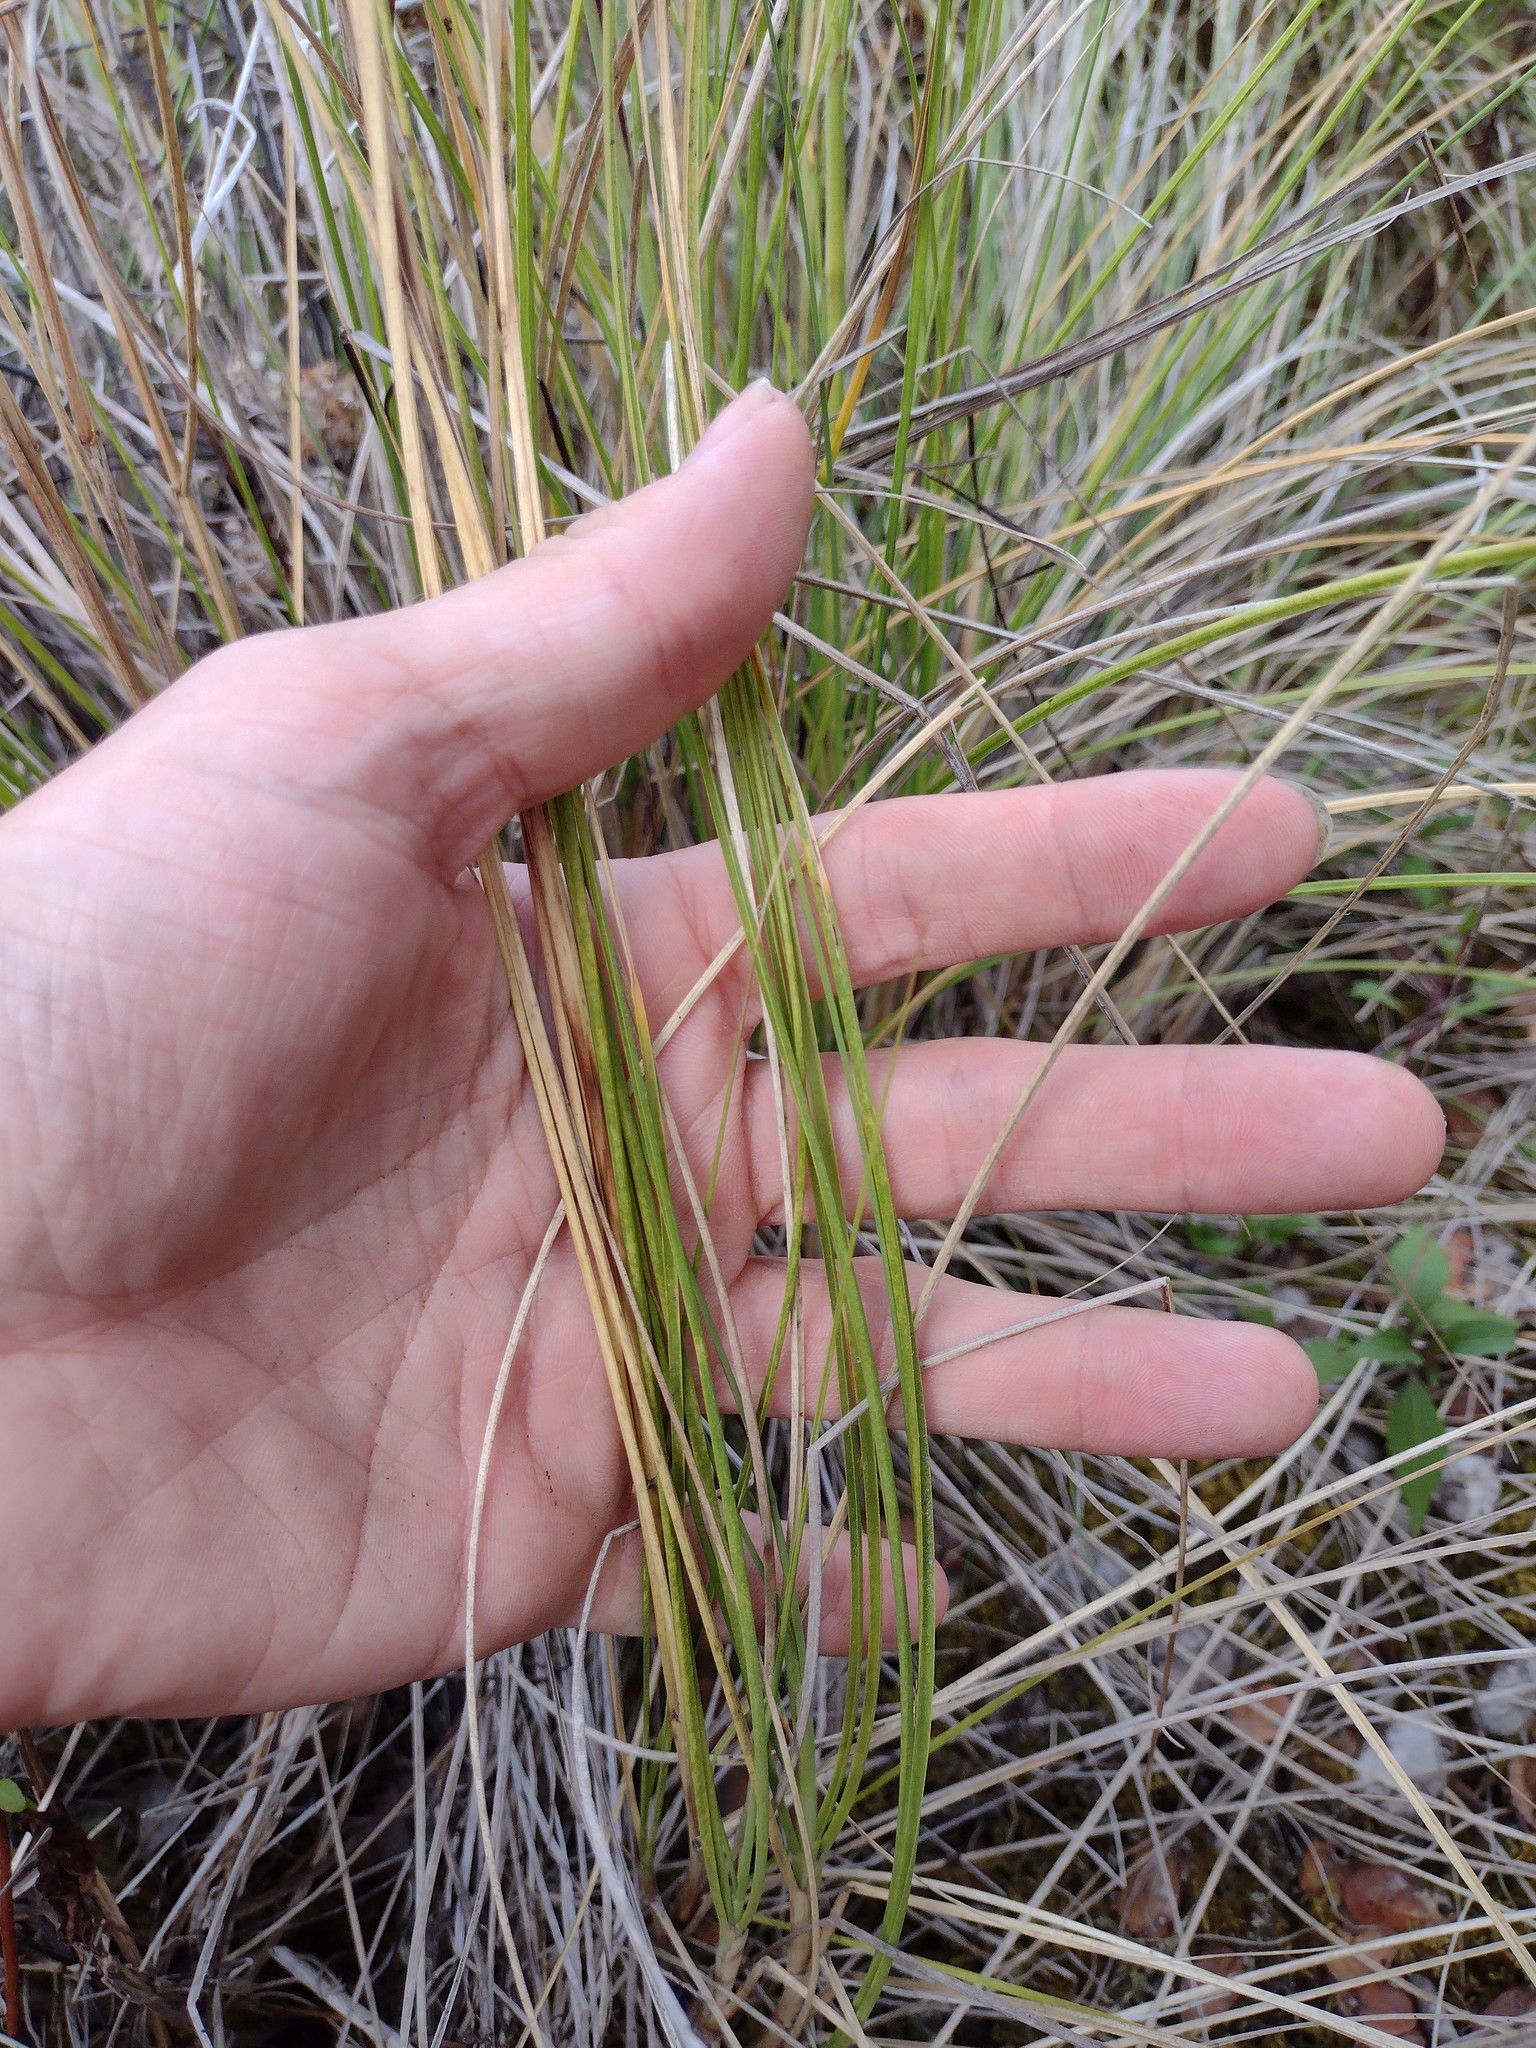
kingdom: Plantae
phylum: Tracheophyta
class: Liliopsida
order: Poales
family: Poaceae
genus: Cenchrus
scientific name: Cenchrus setaceus
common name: Crimson fountaingrass
